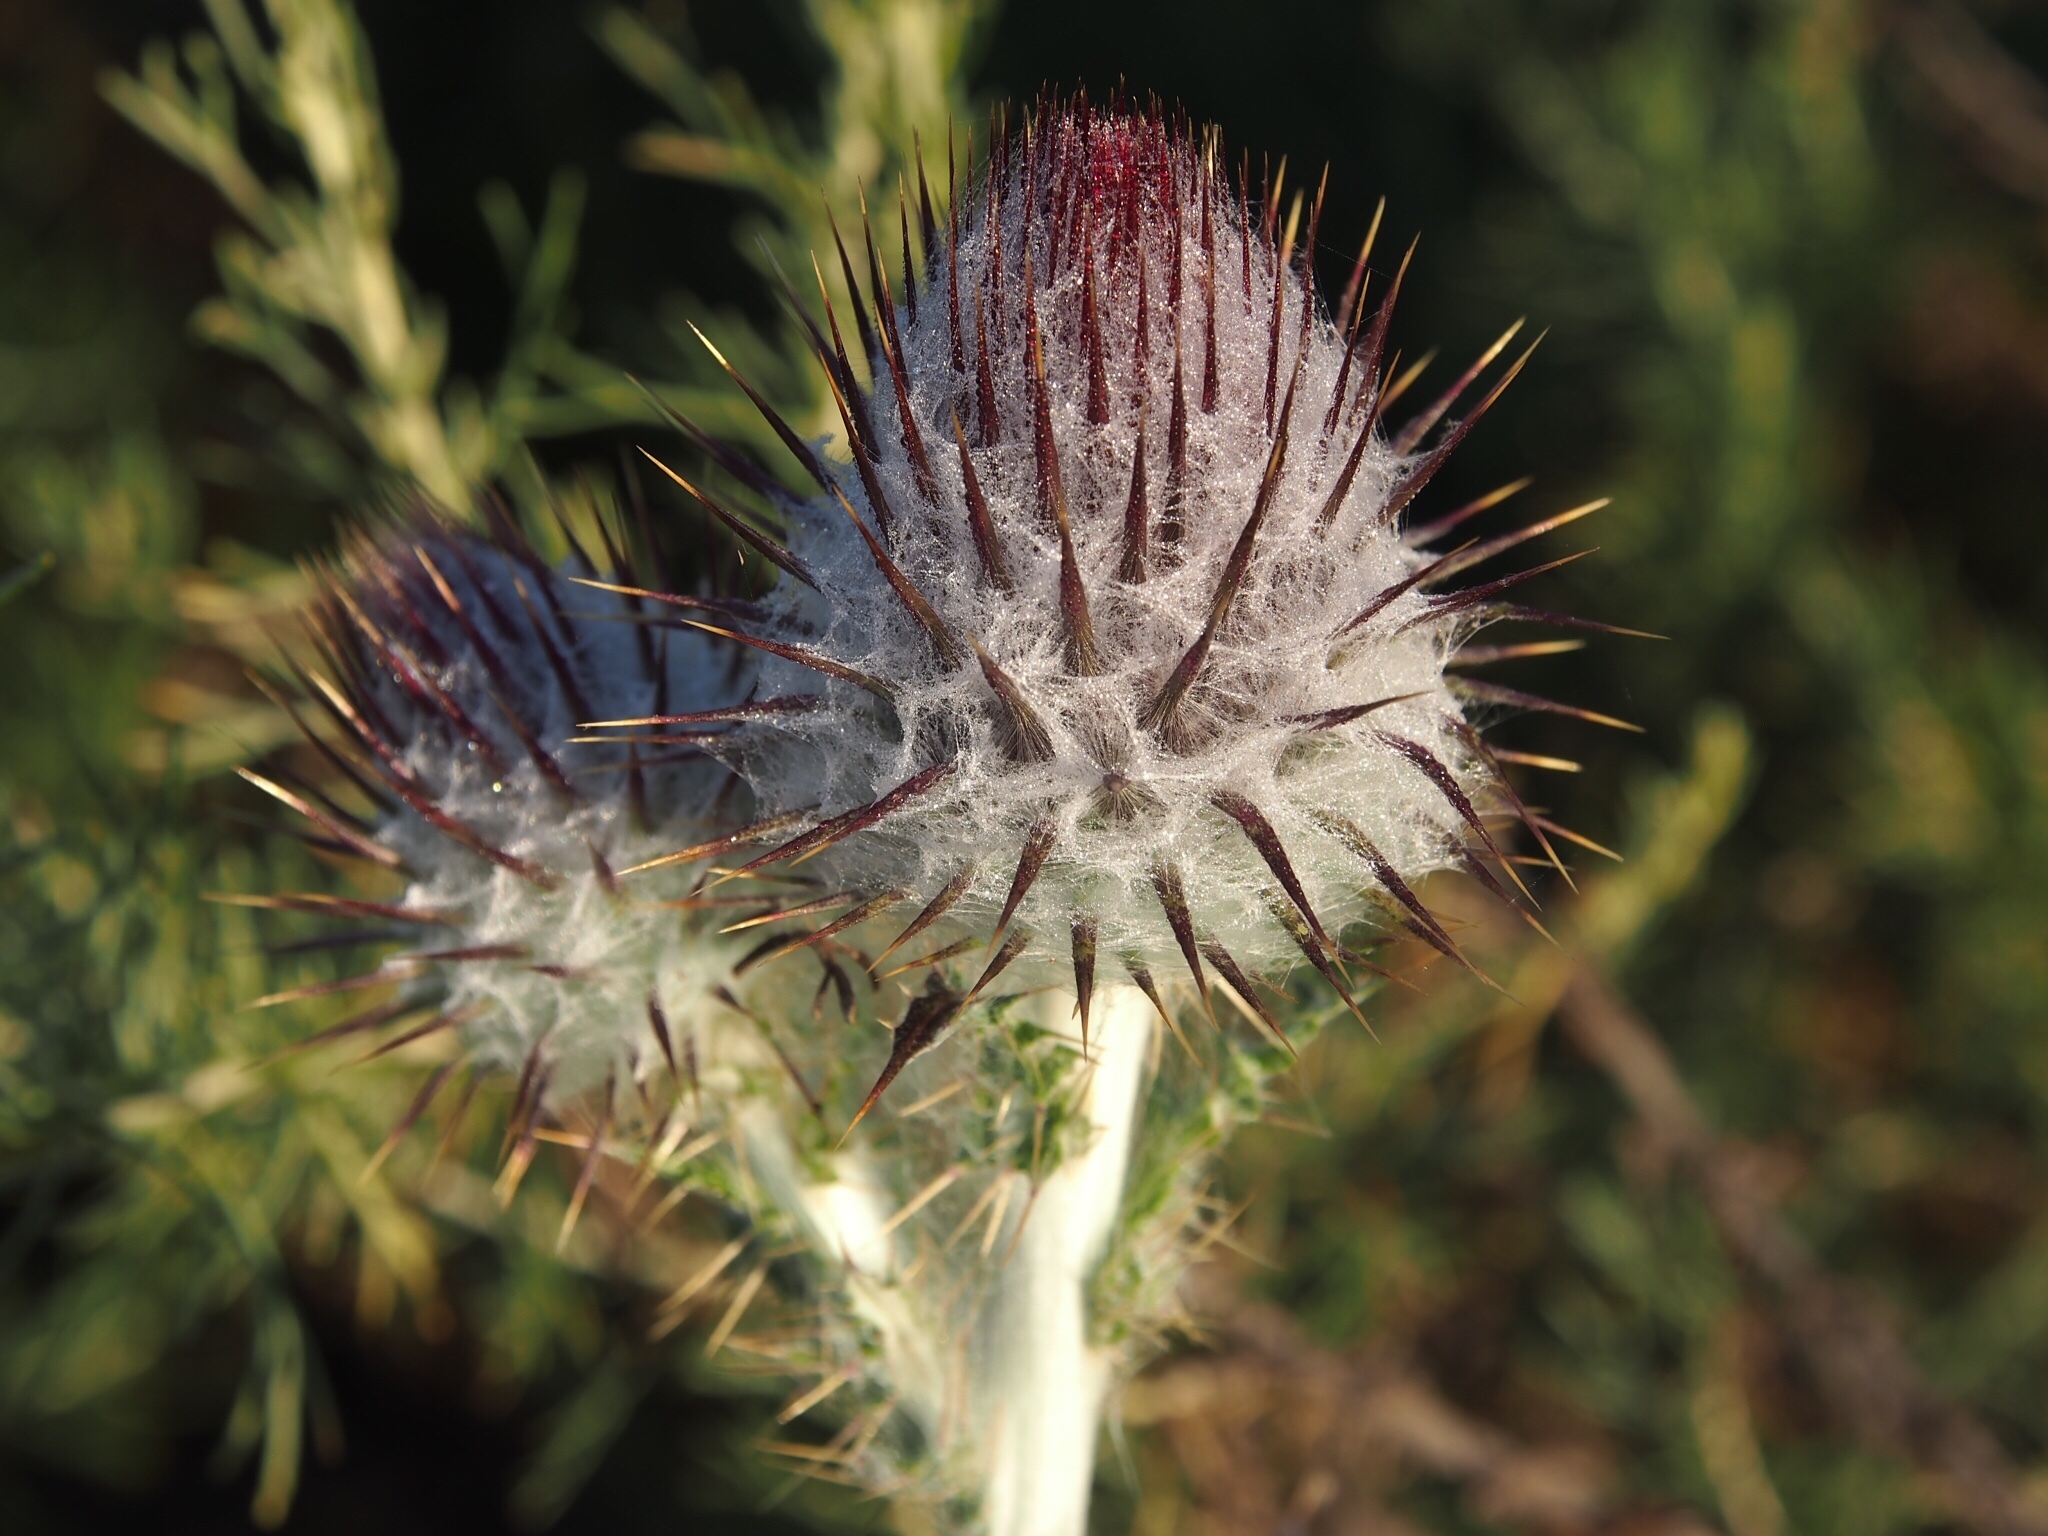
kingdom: Plantae
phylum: Tracheophyta
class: Magnoliopsida
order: Asterales
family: Asteraceae
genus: Cirsium
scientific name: Cirsium occidentale
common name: Western thistle
